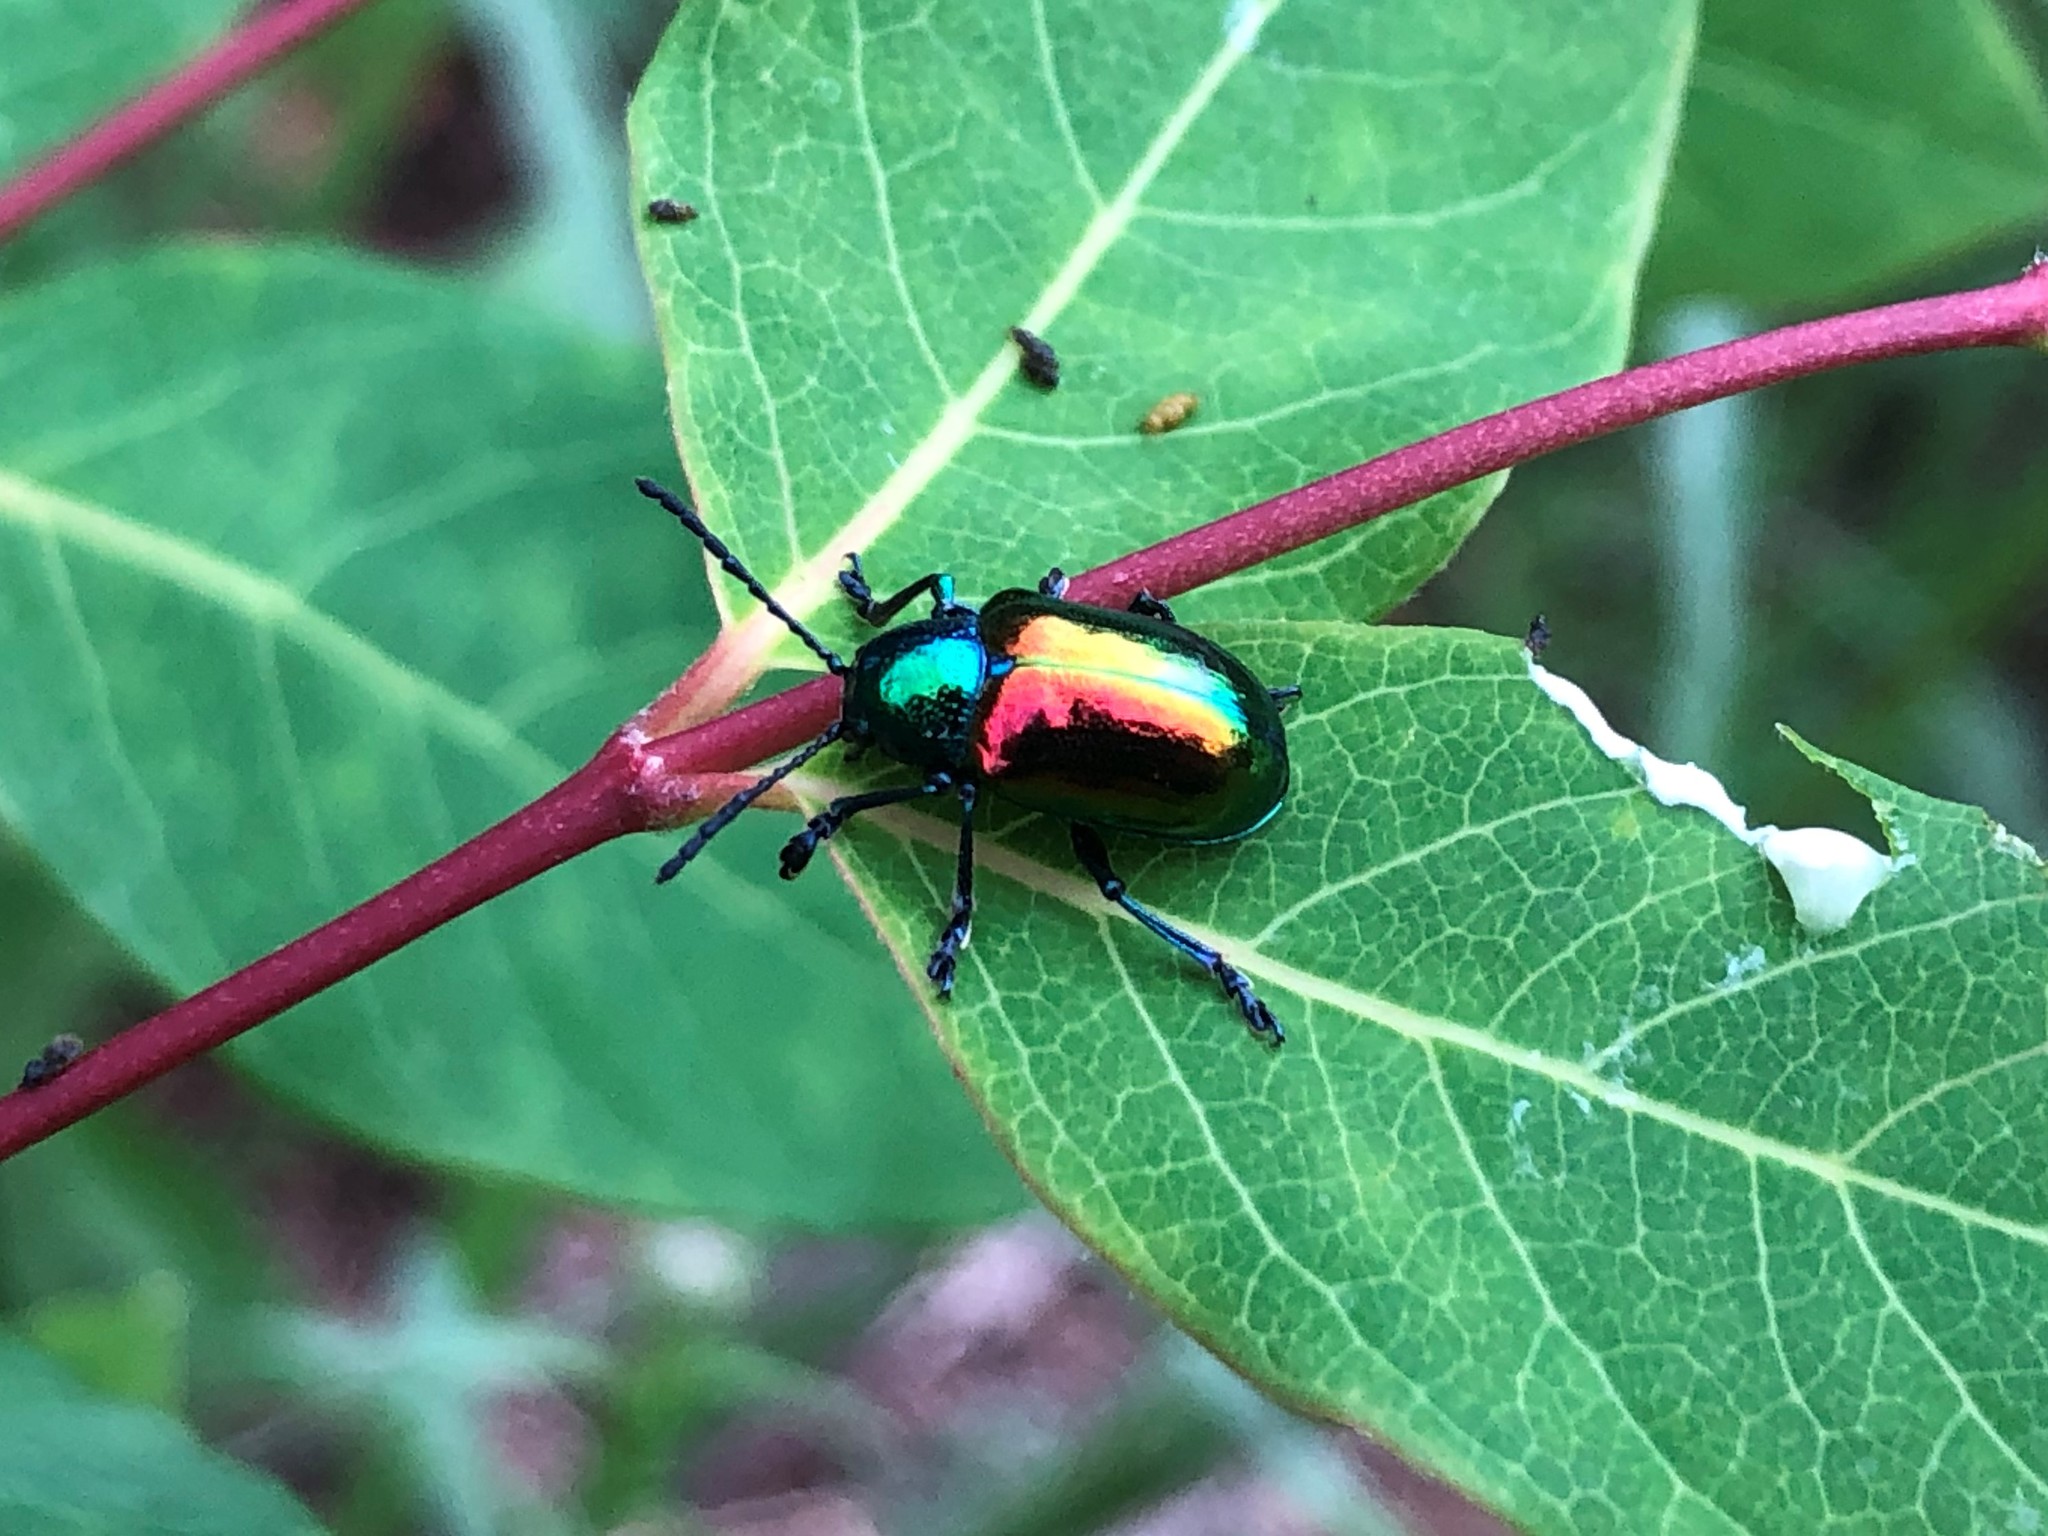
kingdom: Animalia
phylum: Arthropoda
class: Insecta
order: Coleoptera
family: Chrysomelidae
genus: Chrysochus
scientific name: Chrysochus auratus
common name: Dogbane leaf beetle
